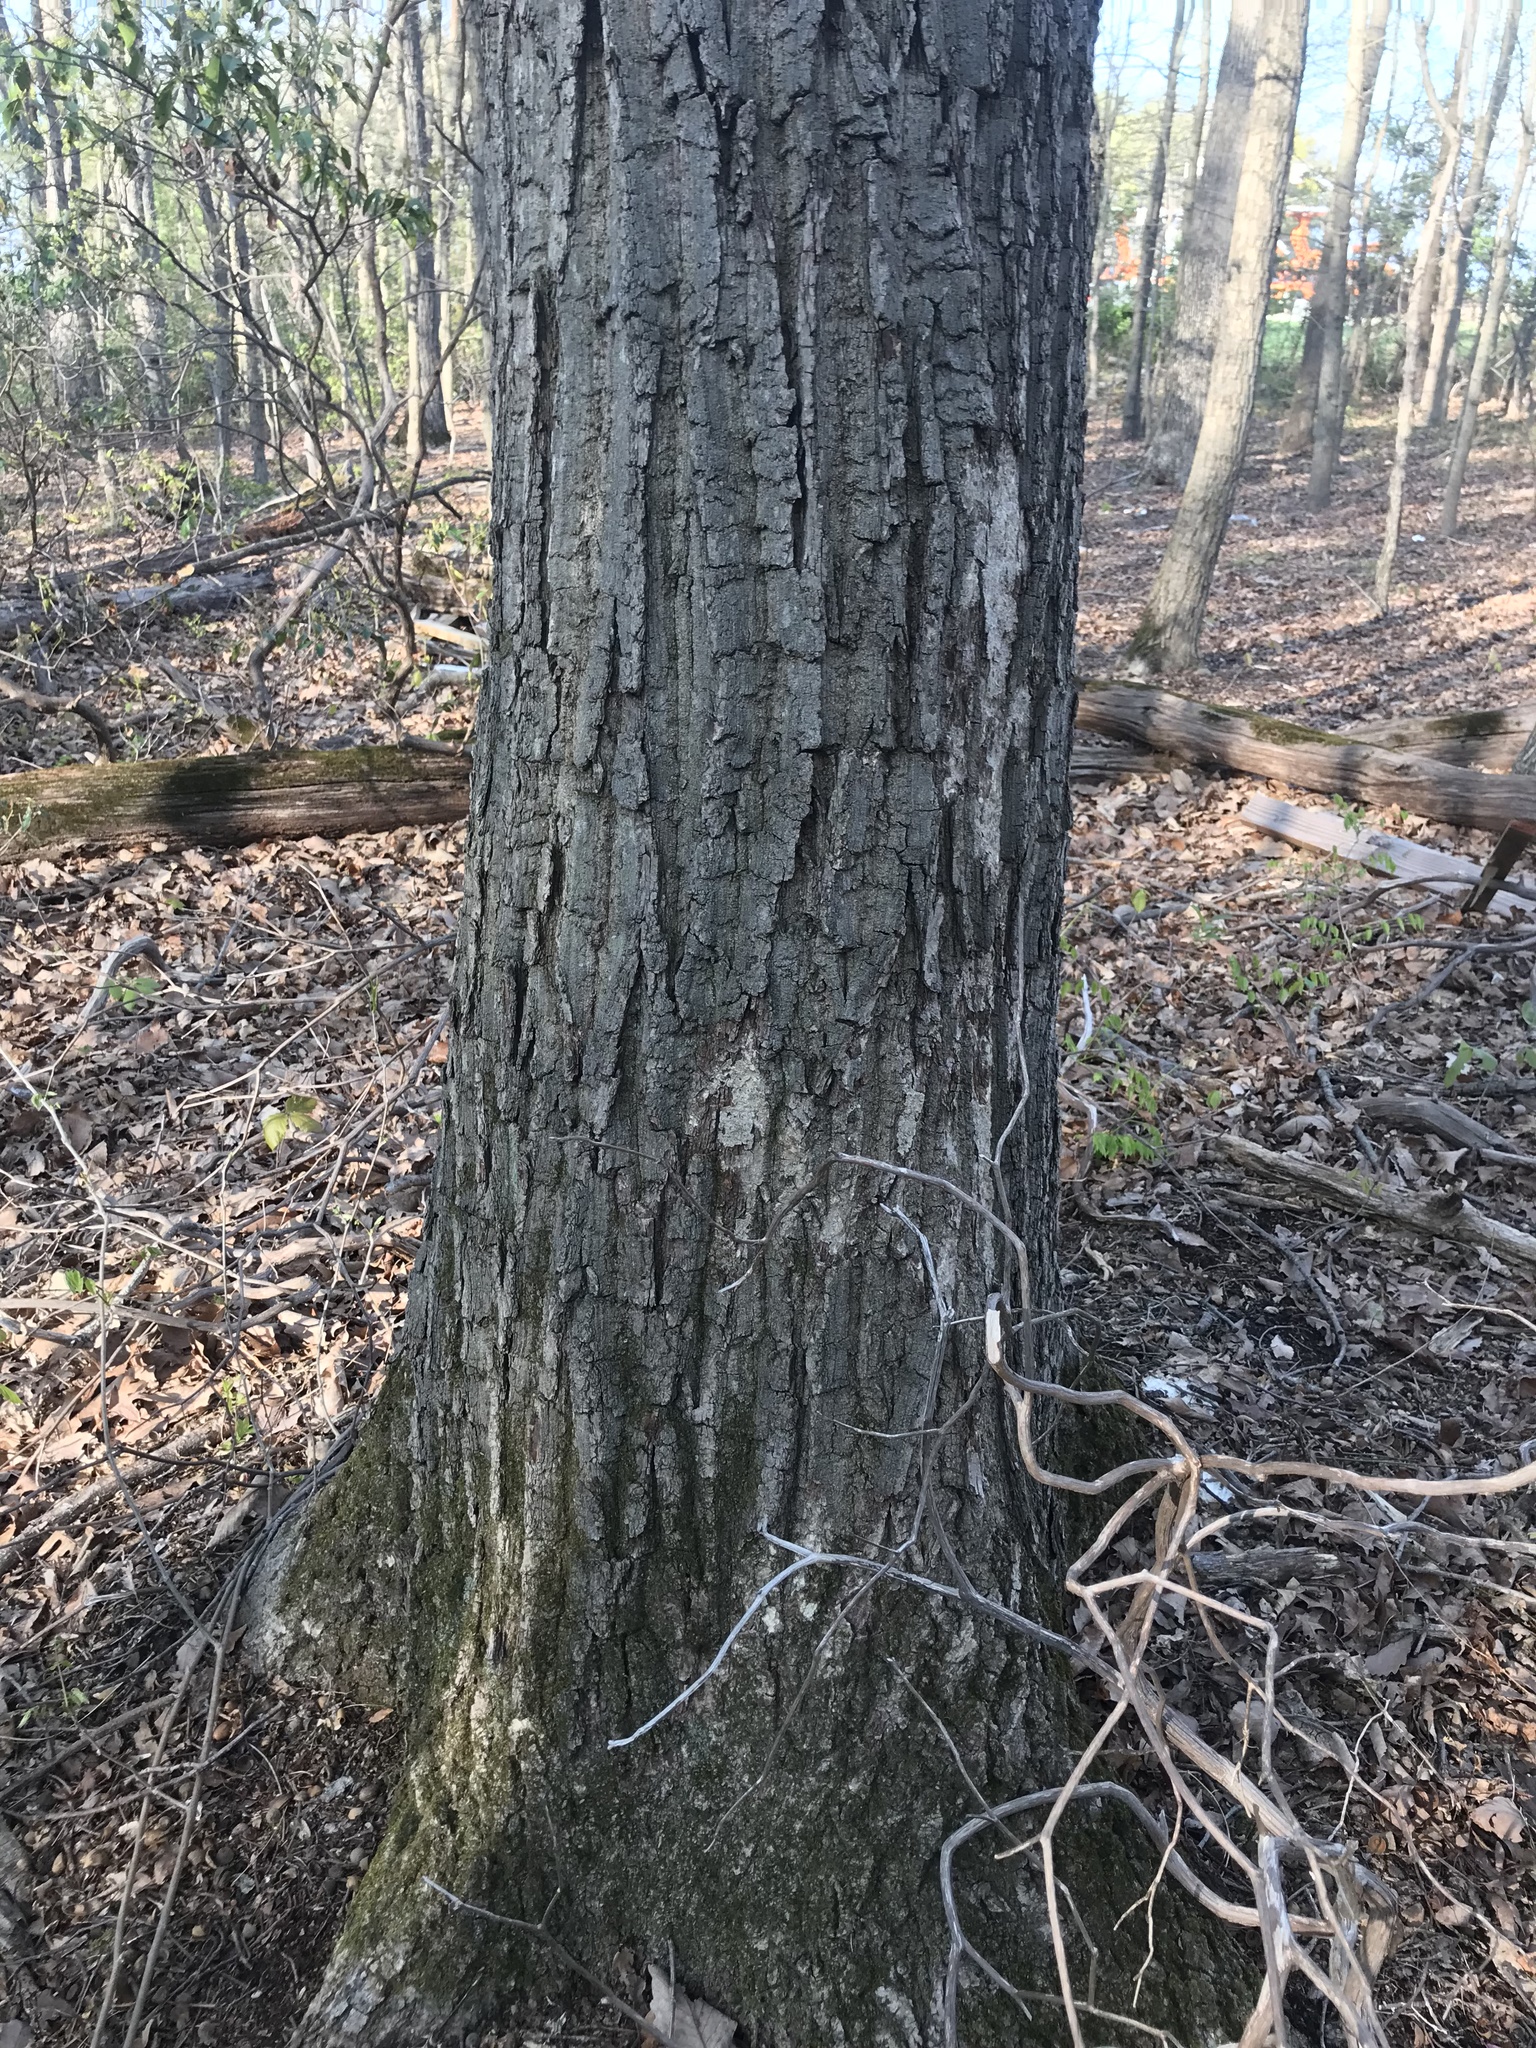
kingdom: Plantae
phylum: Tracheophyta
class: Magnoliopsida
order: Fagales
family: Fagaceae
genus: Quercus
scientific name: Quercus montana
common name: Chestnut oak
